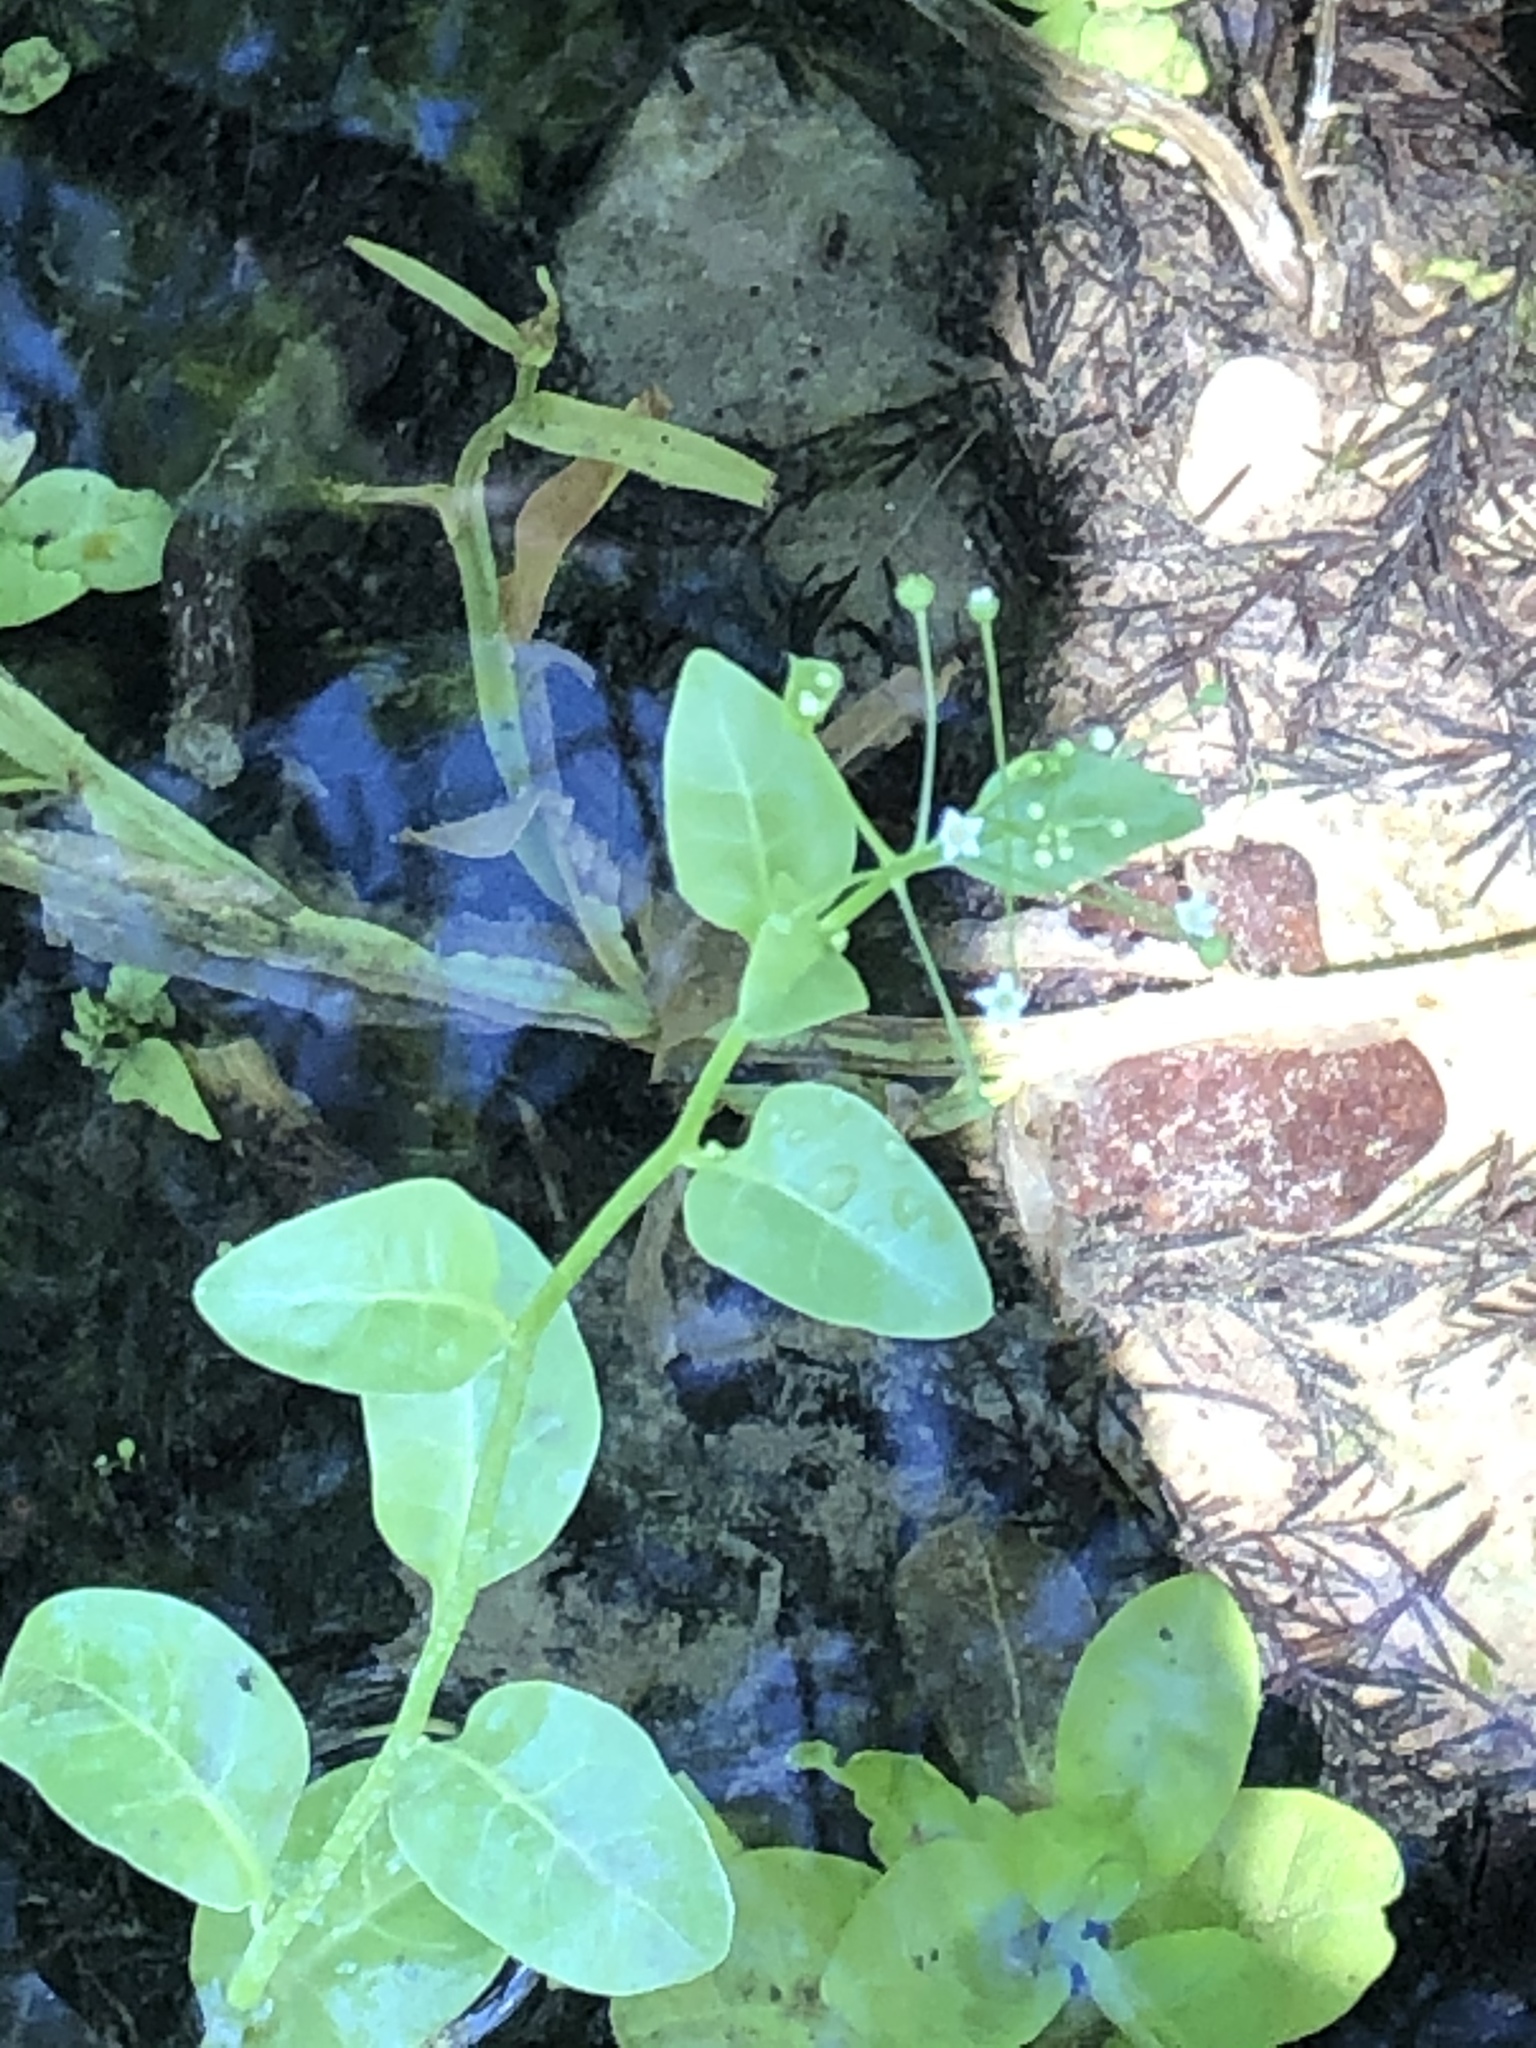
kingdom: Plantae
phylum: Tracheophyta
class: Magnoliopsida
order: Ericales
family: Primulaceae
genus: Samolus
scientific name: Samolus parviflorus
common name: False water pimpernel
